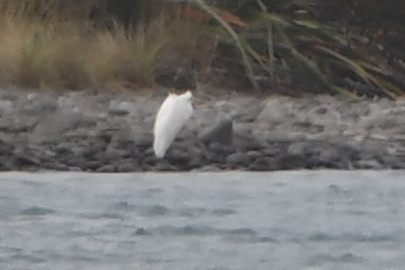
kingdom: Animalia
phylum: Chordata
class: Aves
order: Pelecaniformes
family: Ardeidae
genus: Ardea
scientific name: Ardea modesta
